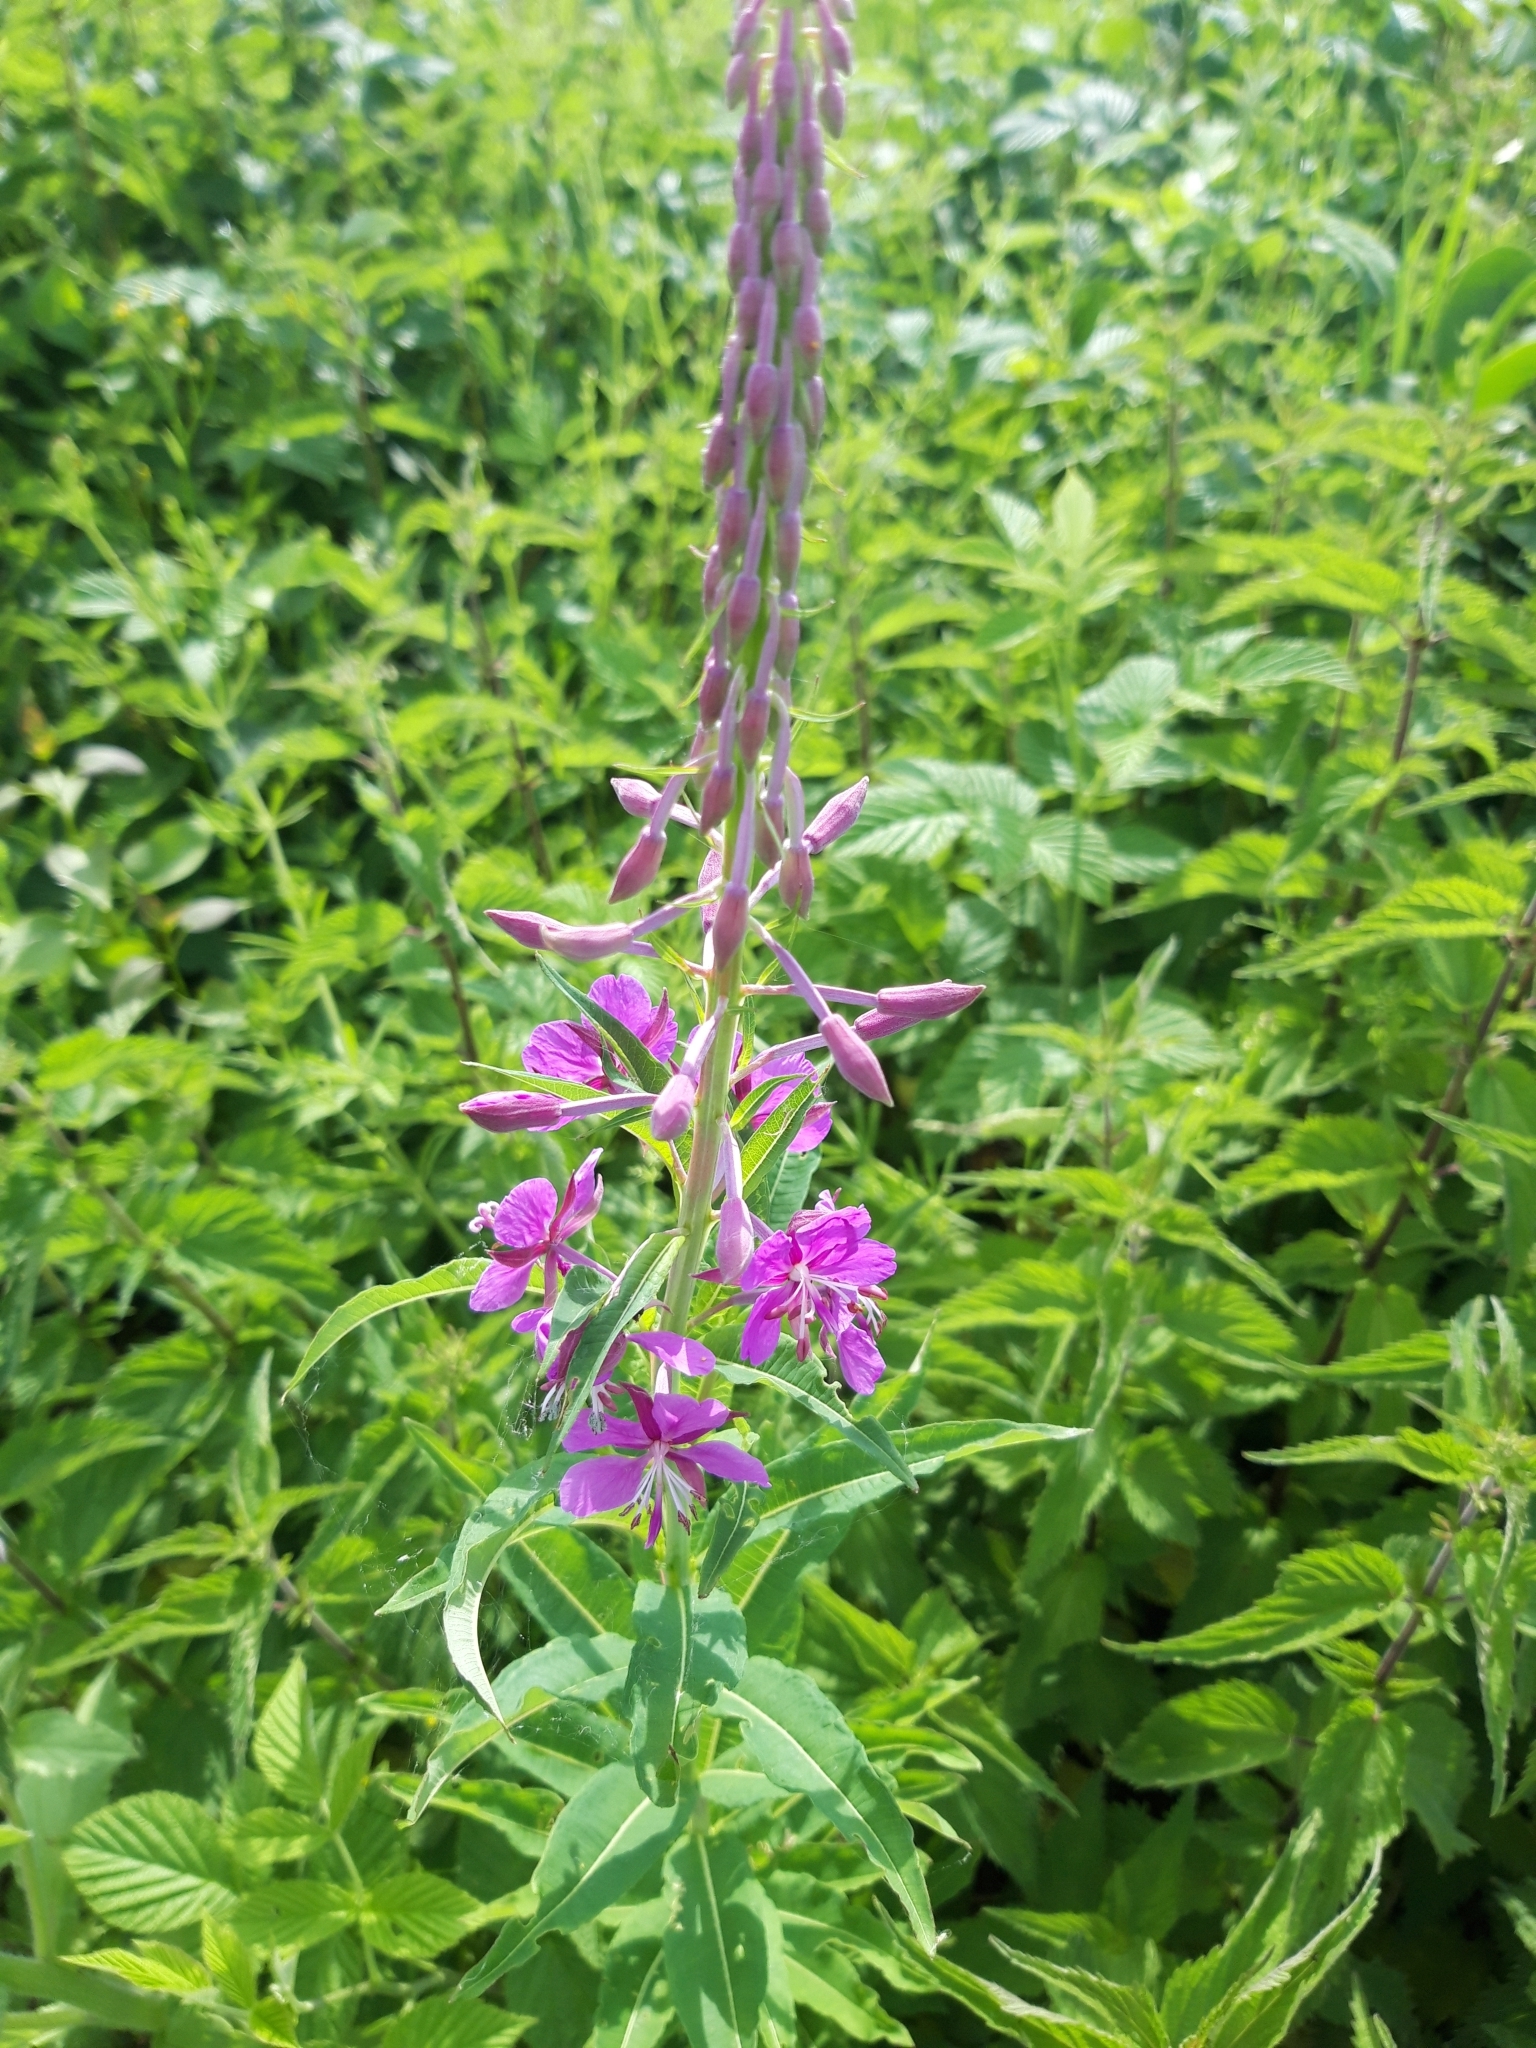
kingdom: Plantae
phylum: Tracheophyta
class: Magnoliopsida
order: Myrtales
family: Onagraceae
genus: Chamaenerion
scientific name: Chamaenerion angustifolium
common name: Fireweed
